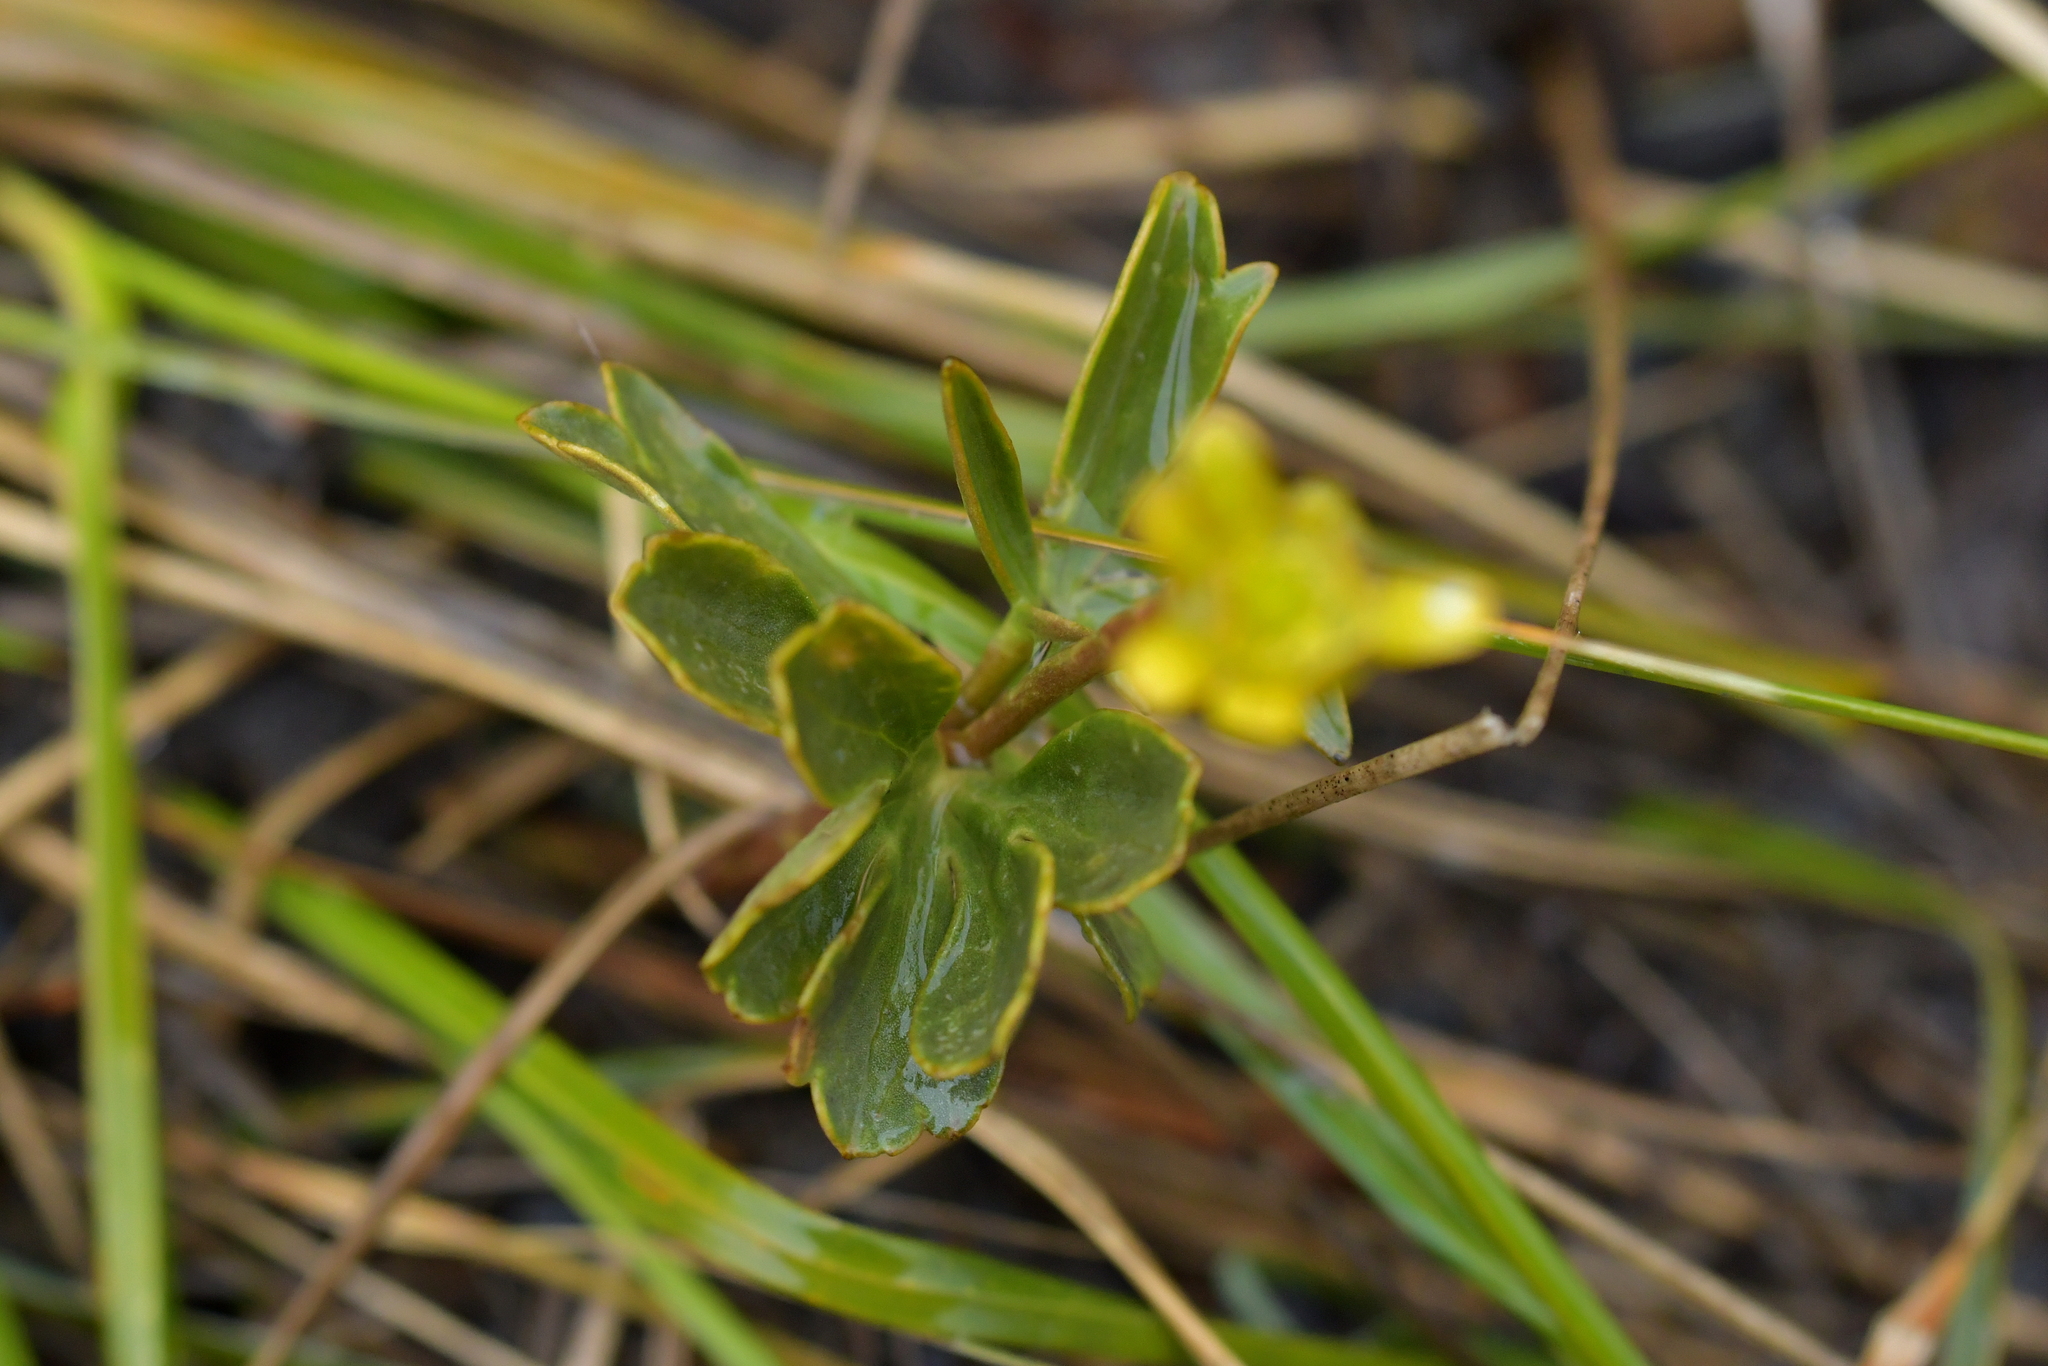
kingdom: Plantae
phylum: Tracheophyta
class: Magnoliopsida
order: Ranunculales
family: Ranunculaceae
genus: Ranunculus
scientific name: Ranunculus verticillatus
